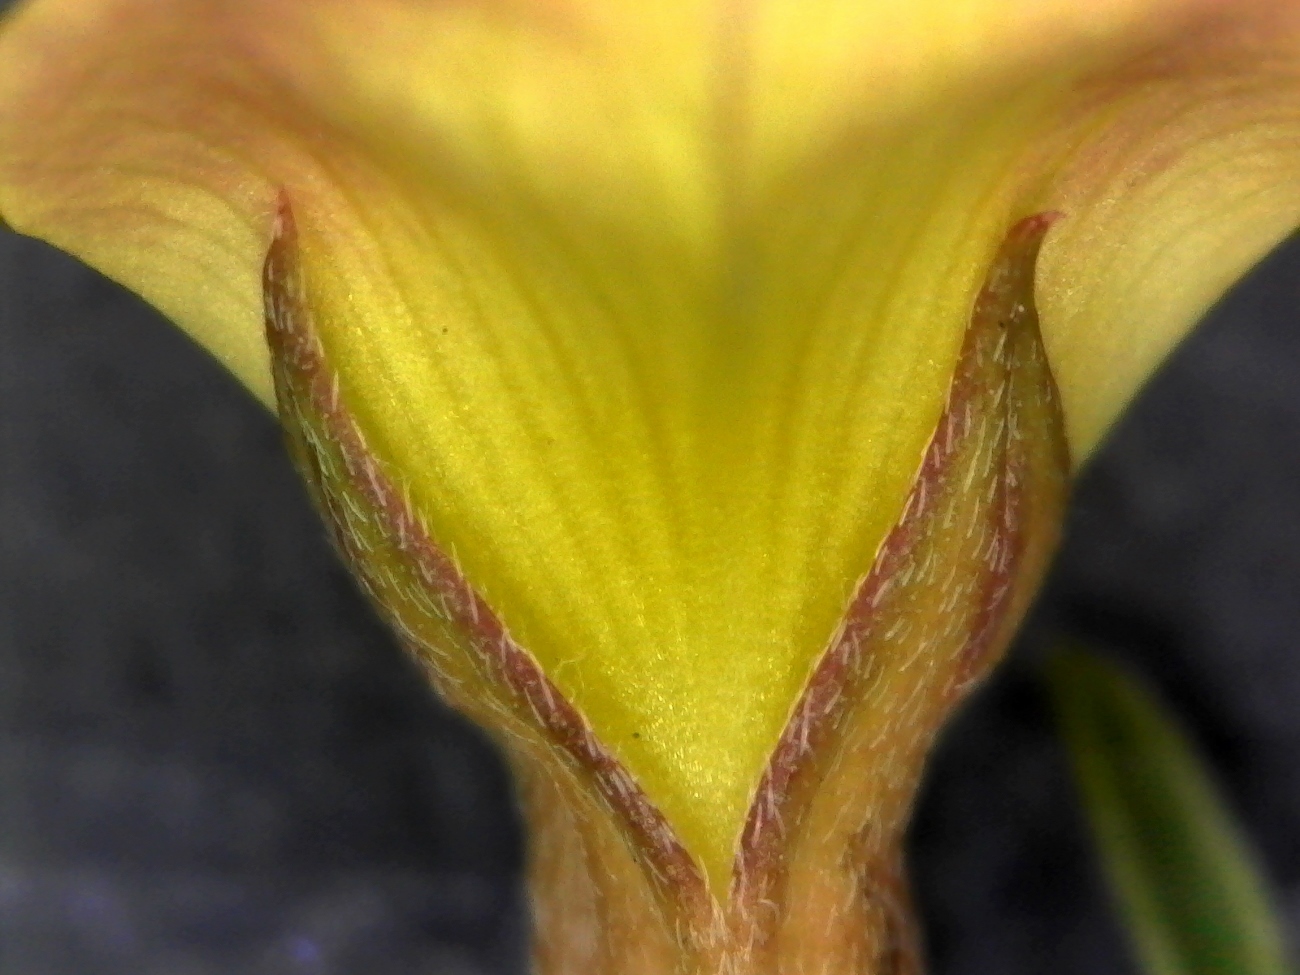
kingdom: Plantae
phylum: Tracheophyta
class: Magnoliopsida
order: Fabales
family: Fabaceae
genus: Leobordea
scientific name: Leobordea digitata
